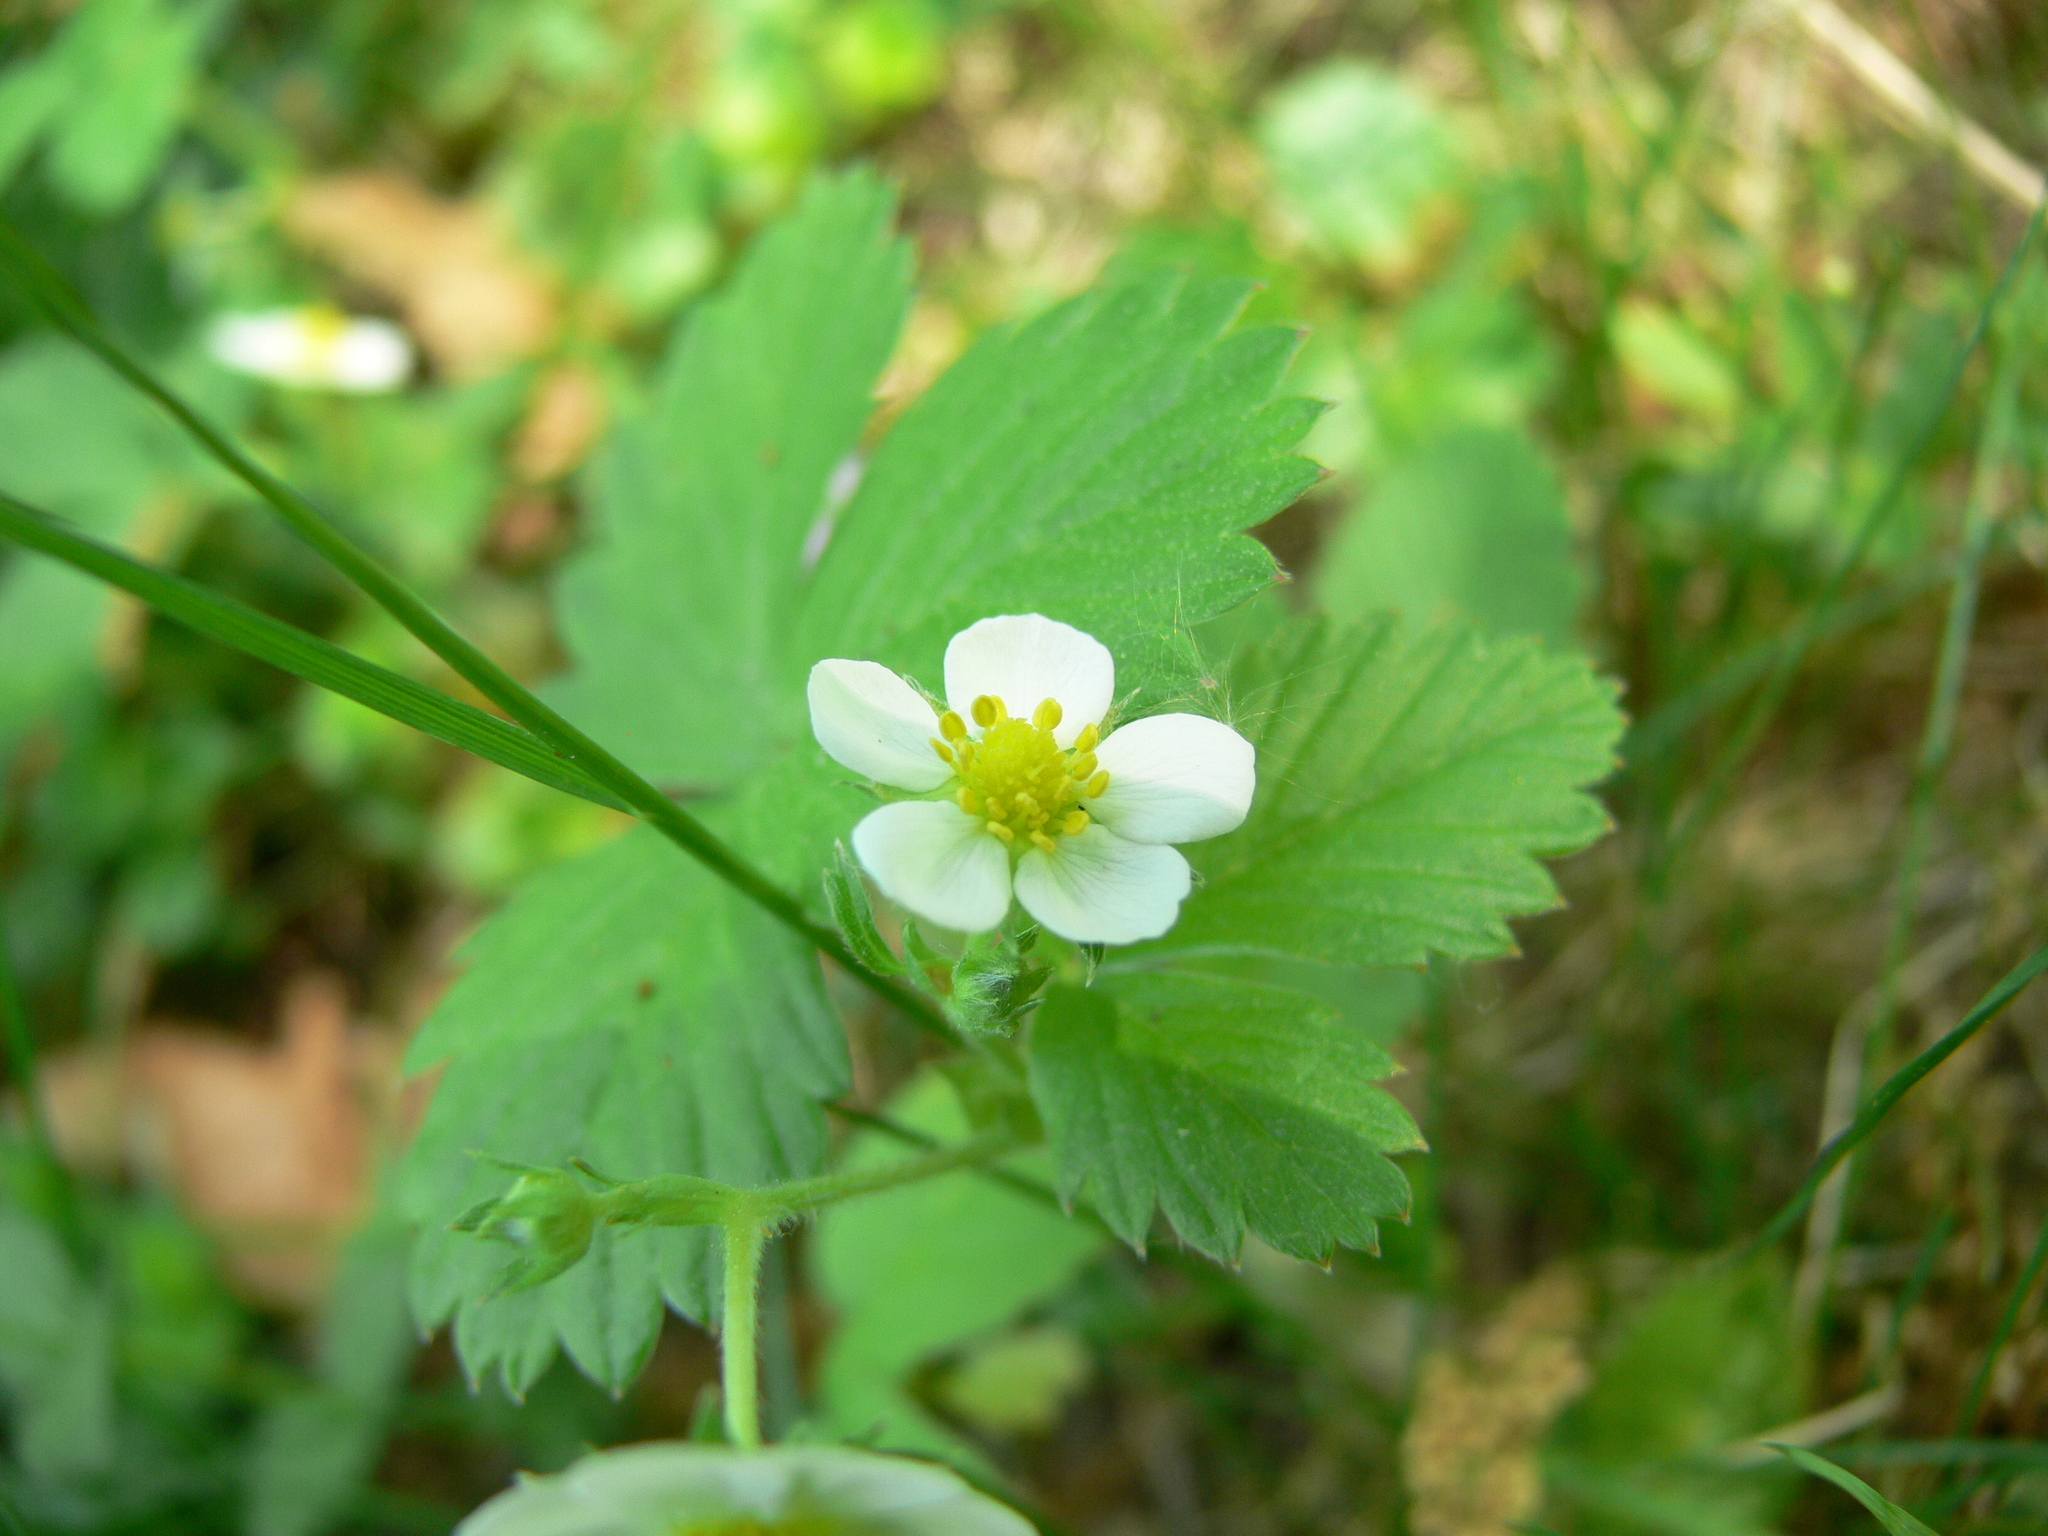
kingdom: Plantae
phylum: Tracheophyta
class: Magnoliopsida
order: Rosales
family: Rosaceae
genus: Fragaria
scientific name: Fragaria vesca
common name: Wild strawberry
